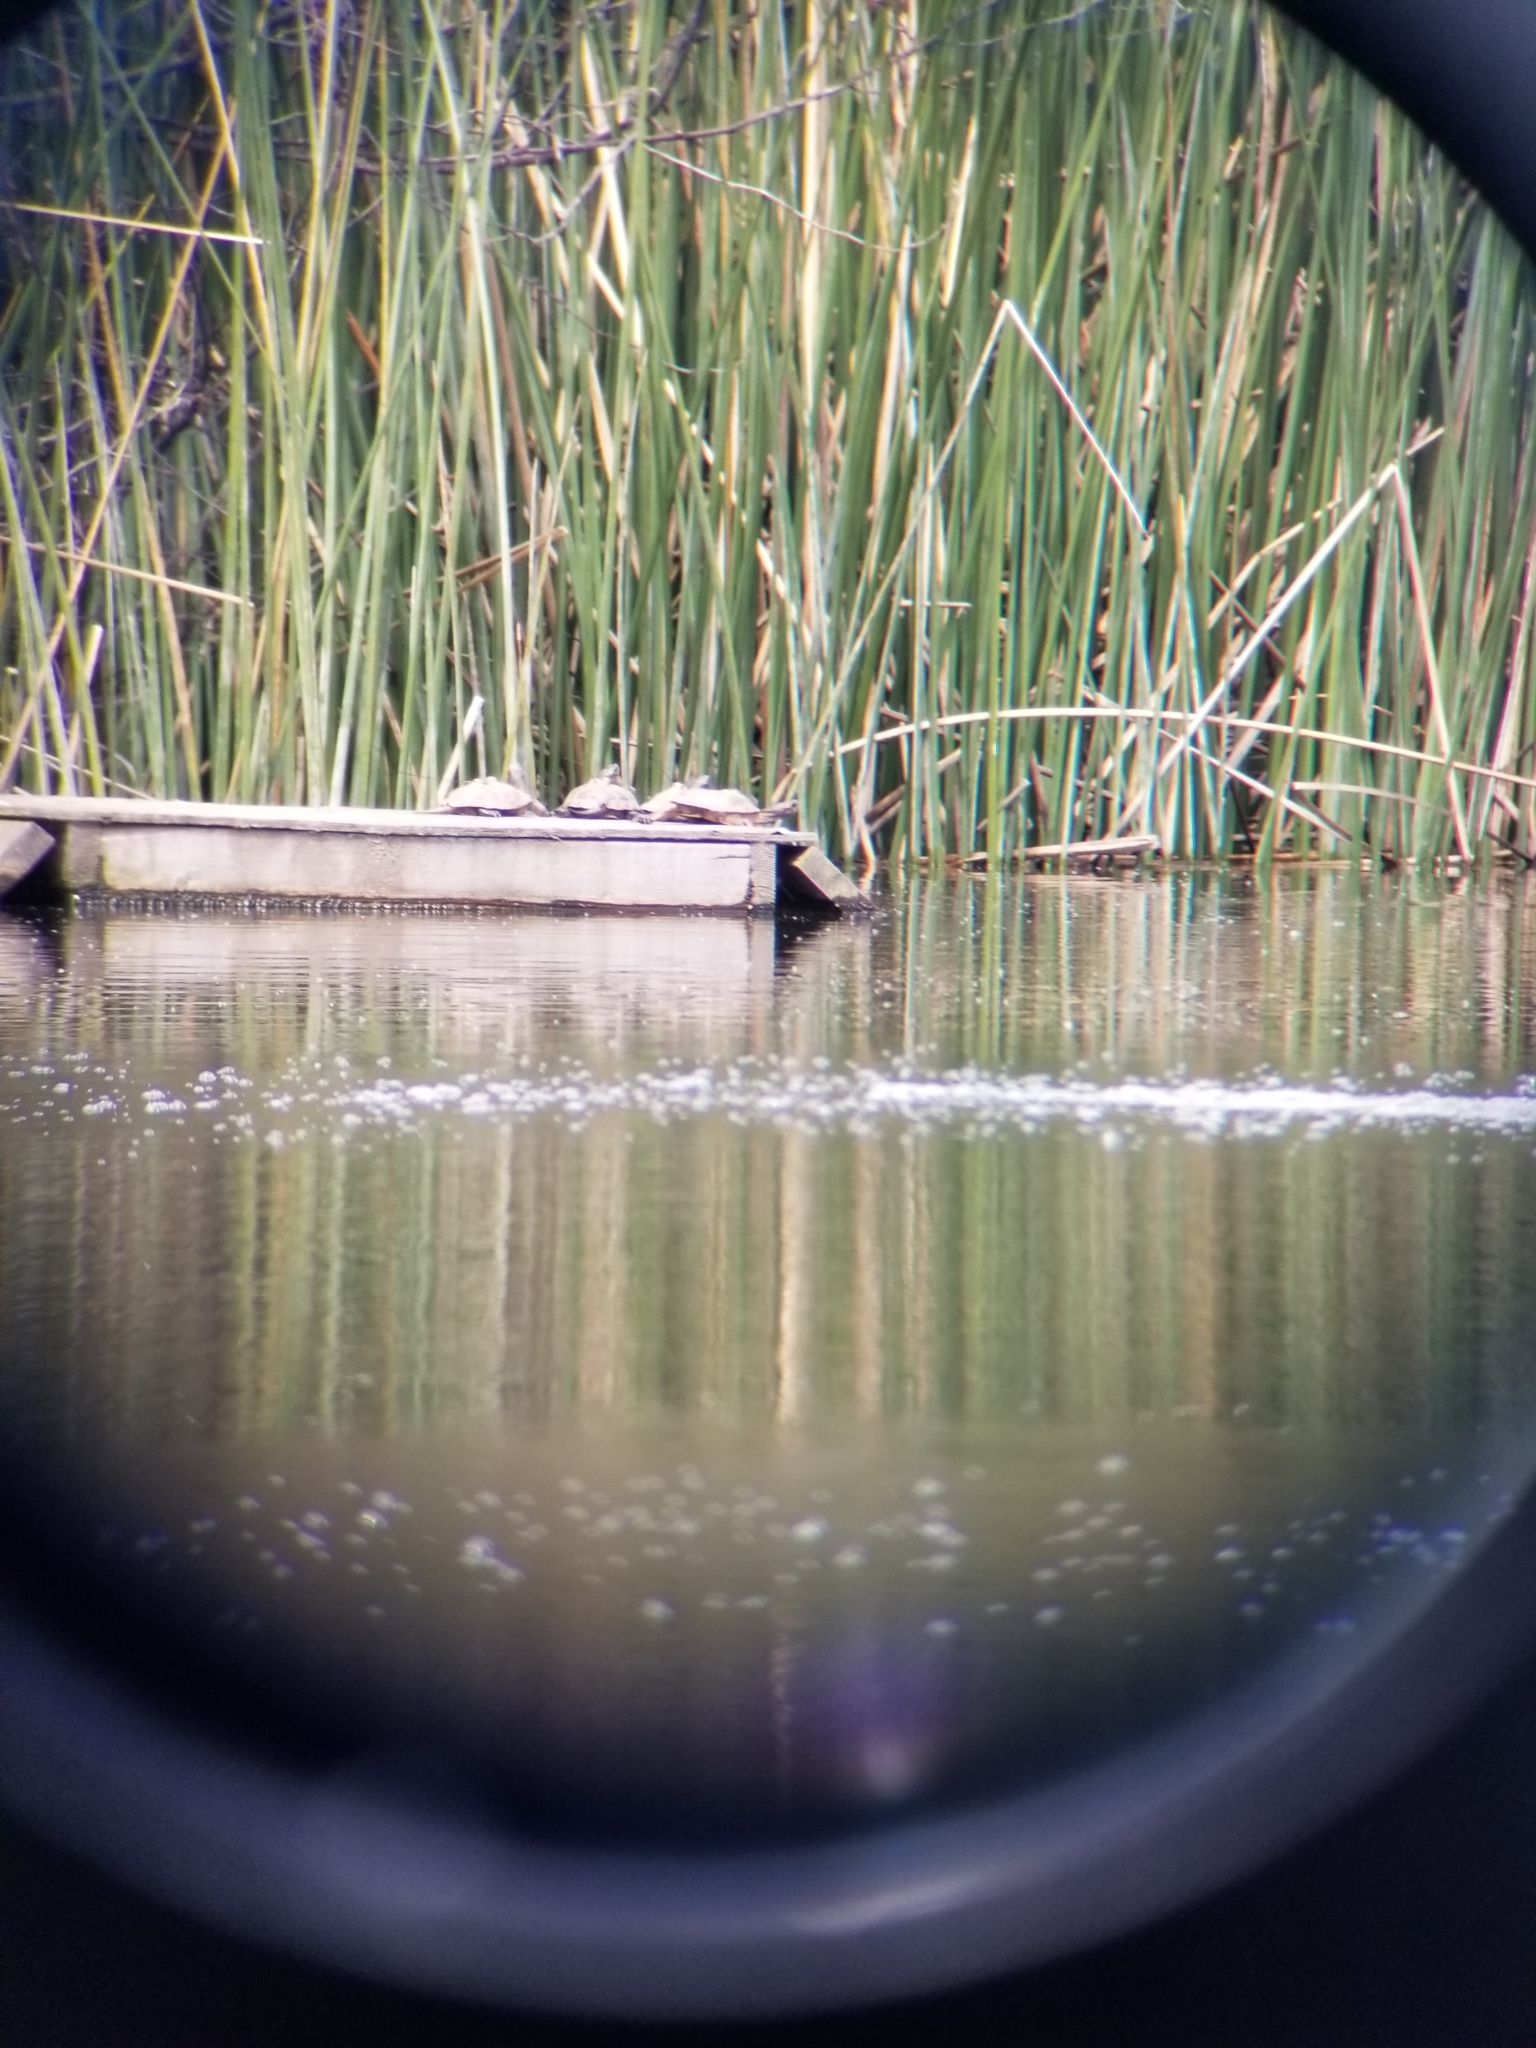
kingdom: Animalia
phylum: Chordata
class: Testudines
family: Emydidae
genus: Actinemys
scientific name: Actinemys marmorata
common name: Western pond turtle
